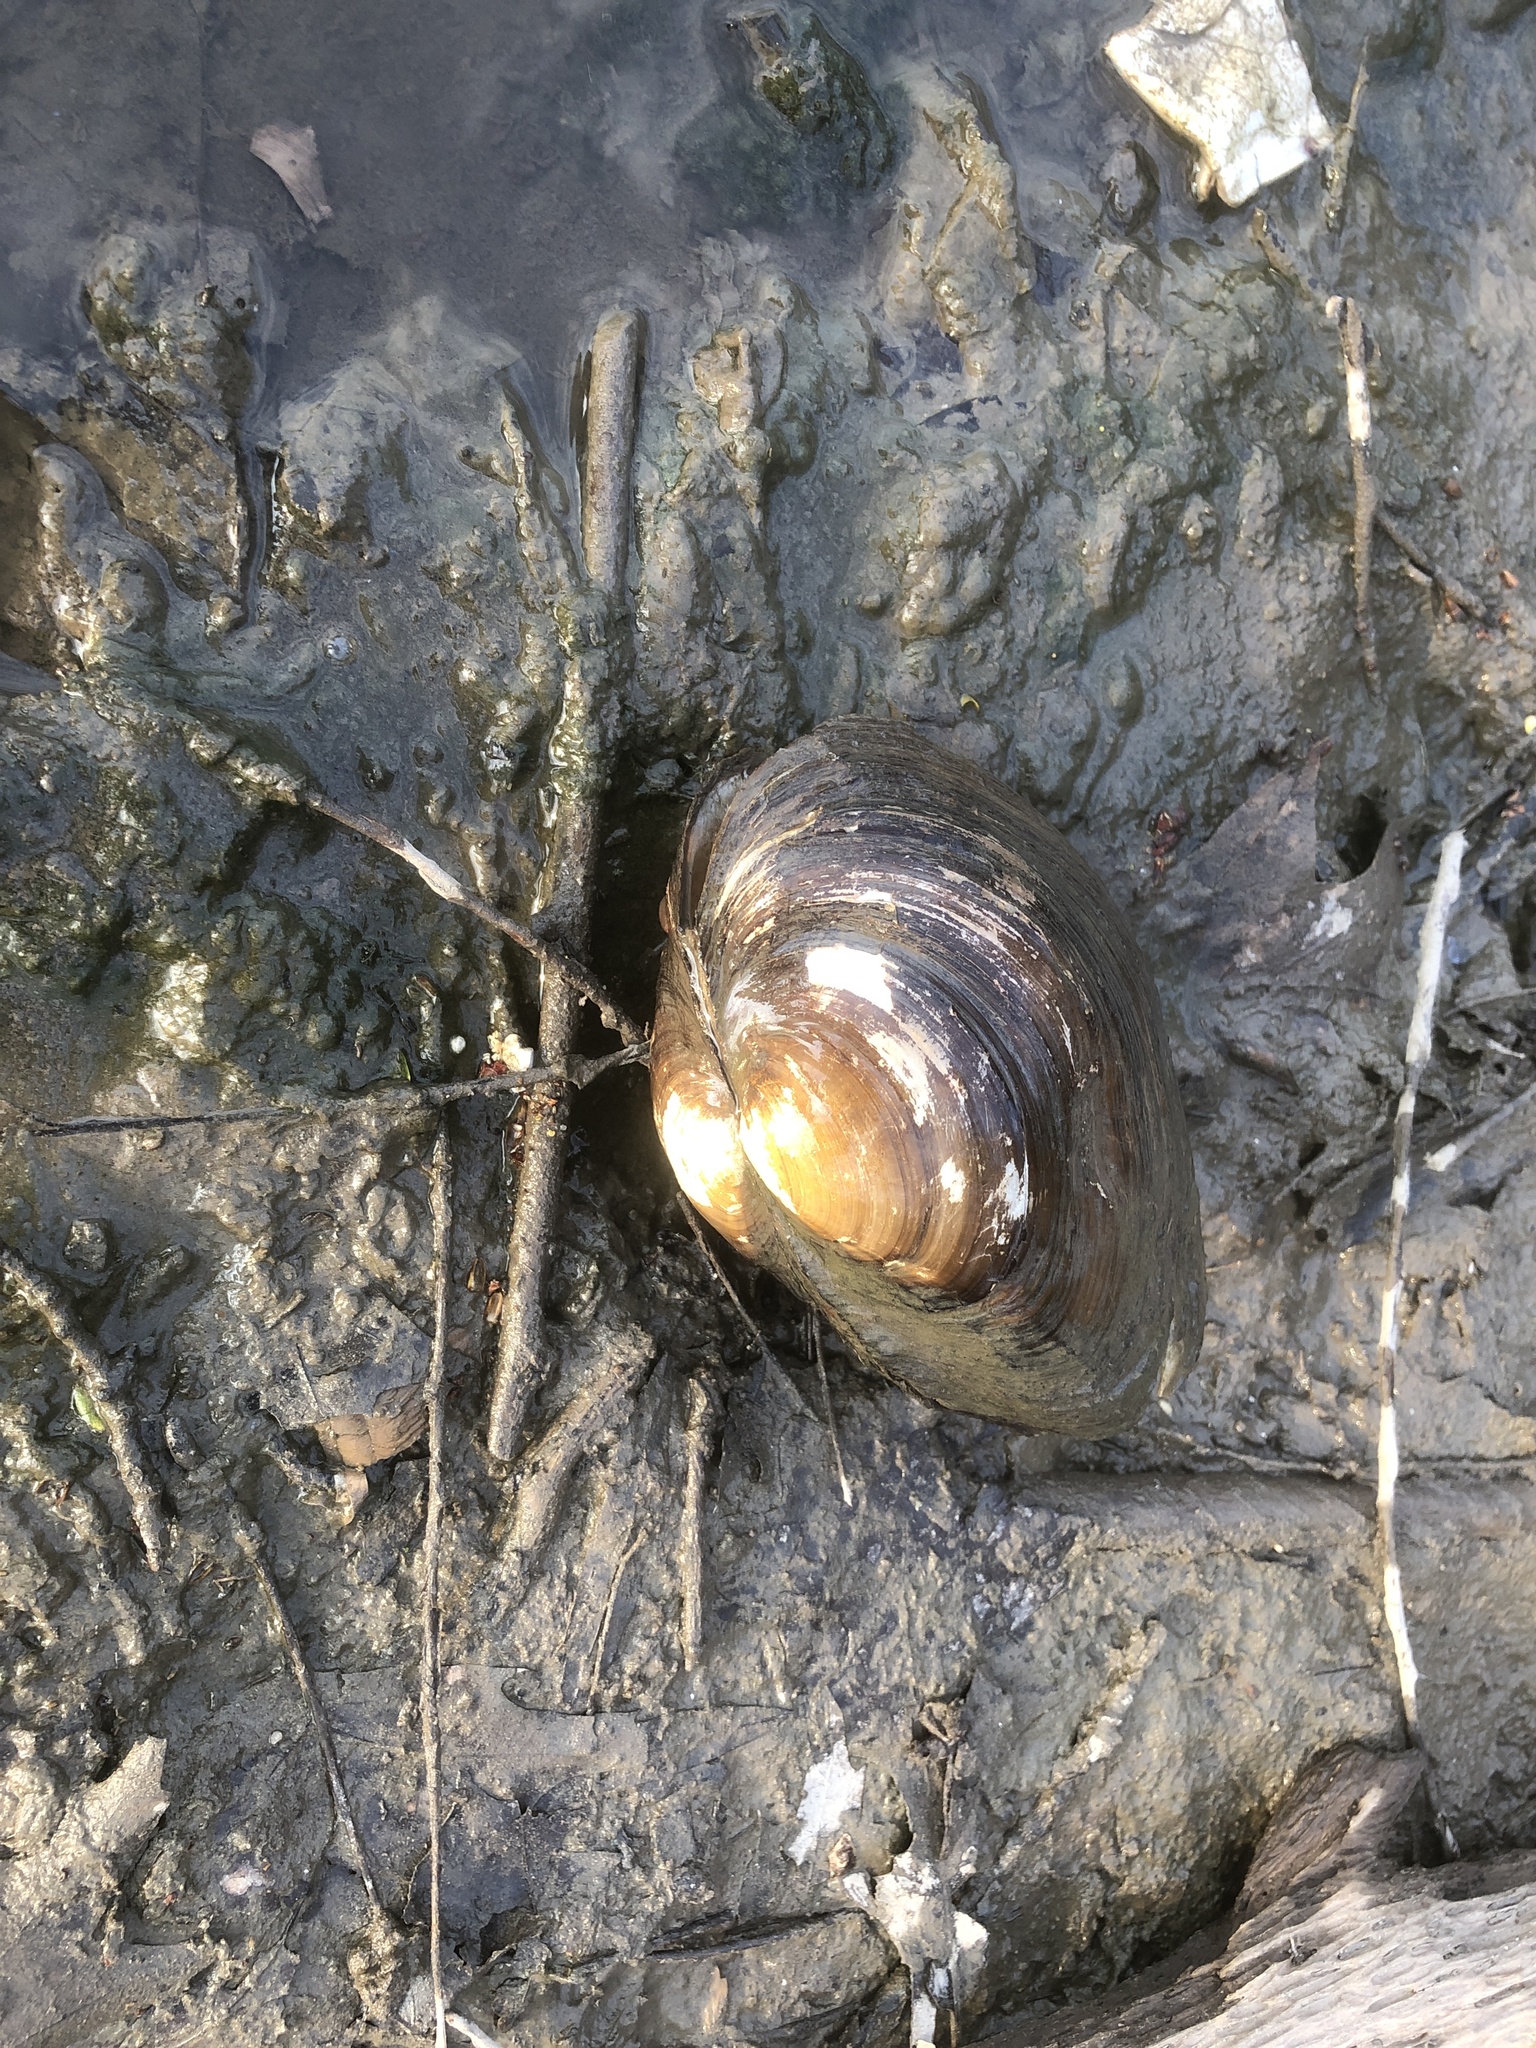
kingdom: Animalia
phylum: Mollusca
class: Bivalvia
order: Unionida
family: Unionidae
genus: Pyganodon
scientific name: Pyganodon grandis
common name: Giant floater
